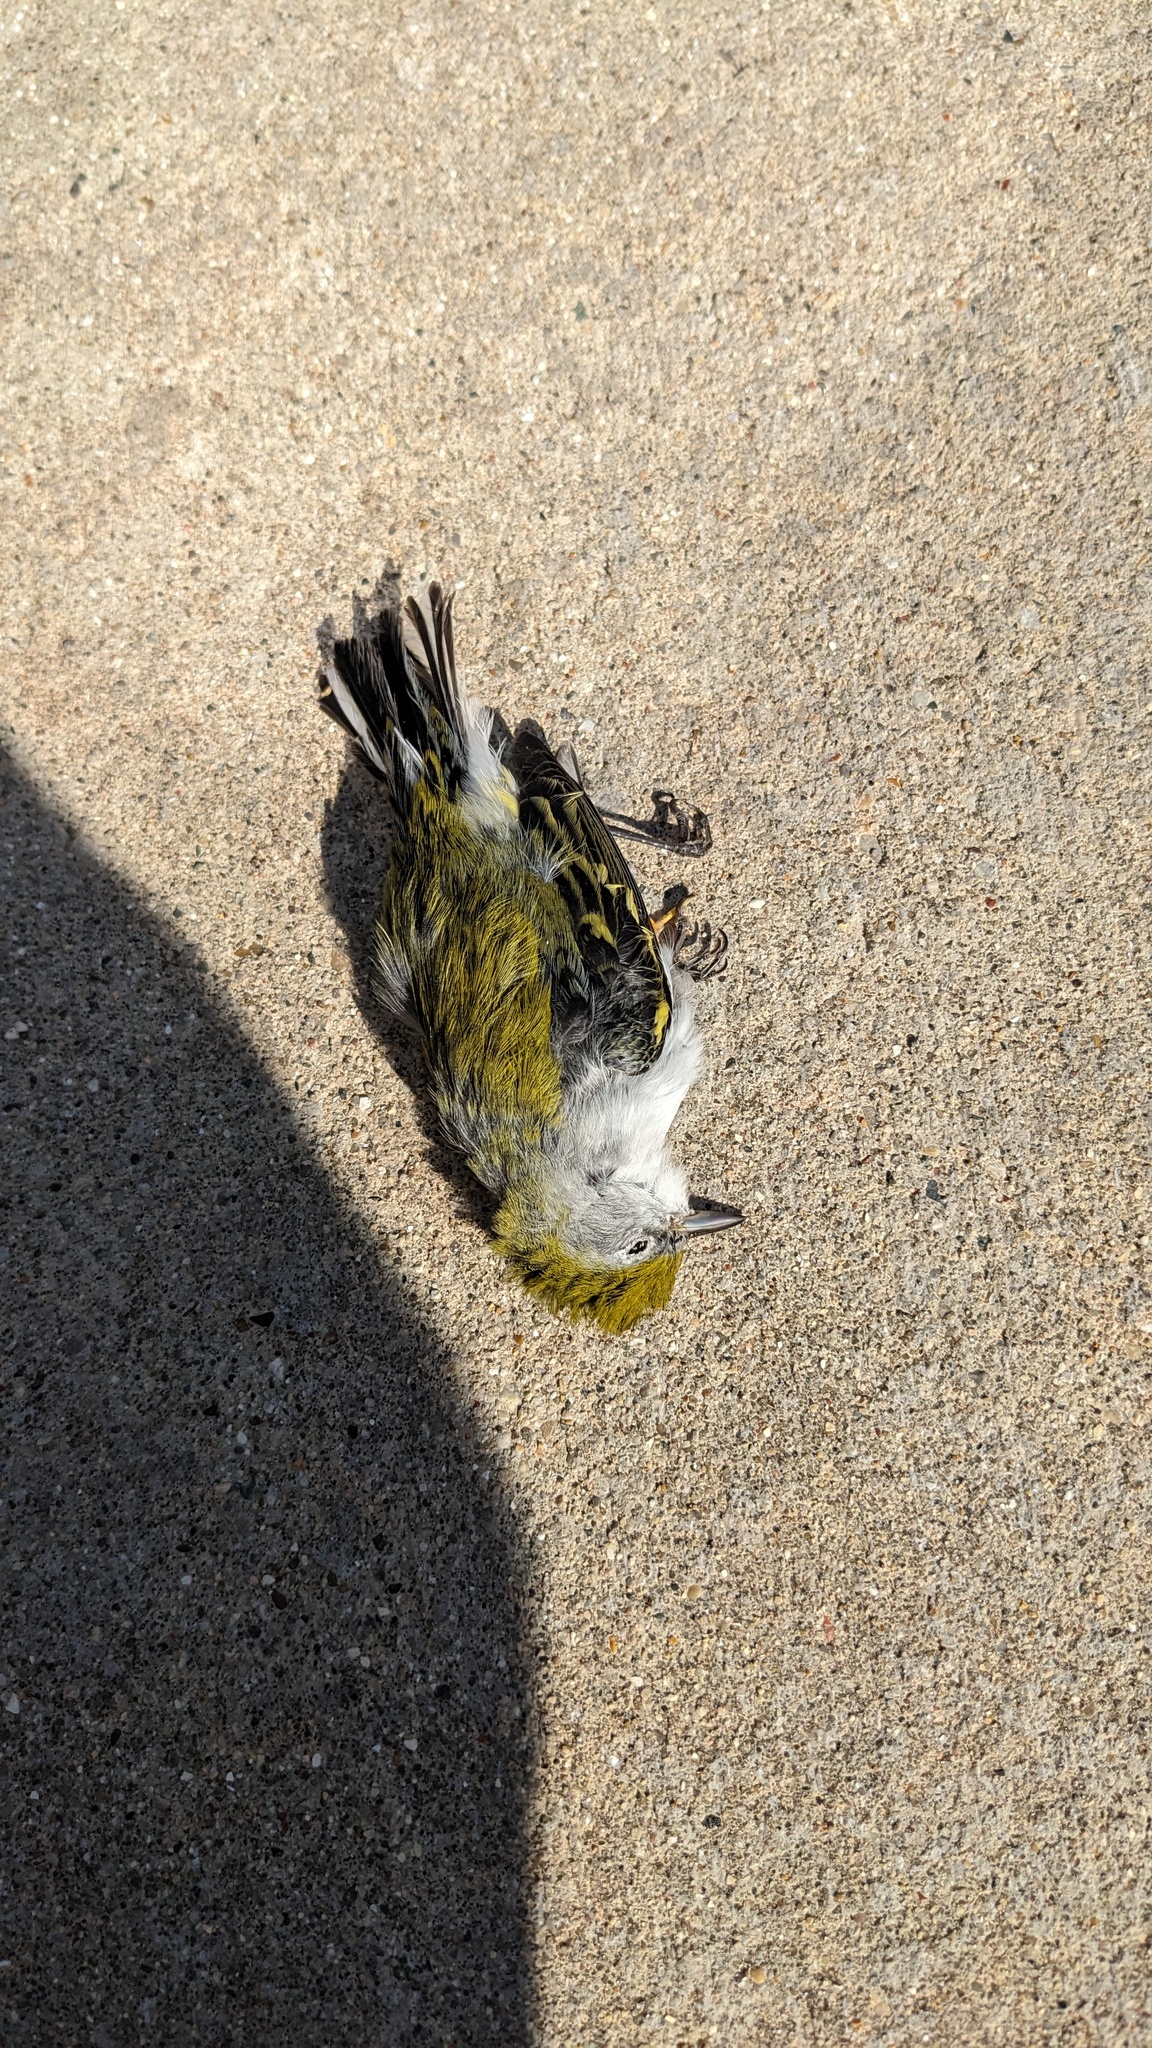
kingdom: Animalia
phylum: Chordata
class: Aves
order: Passeriformes
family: Parulidae
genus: Setophaga
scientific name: Setophaga pensylvanica
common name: Chestnut-sided warbler
